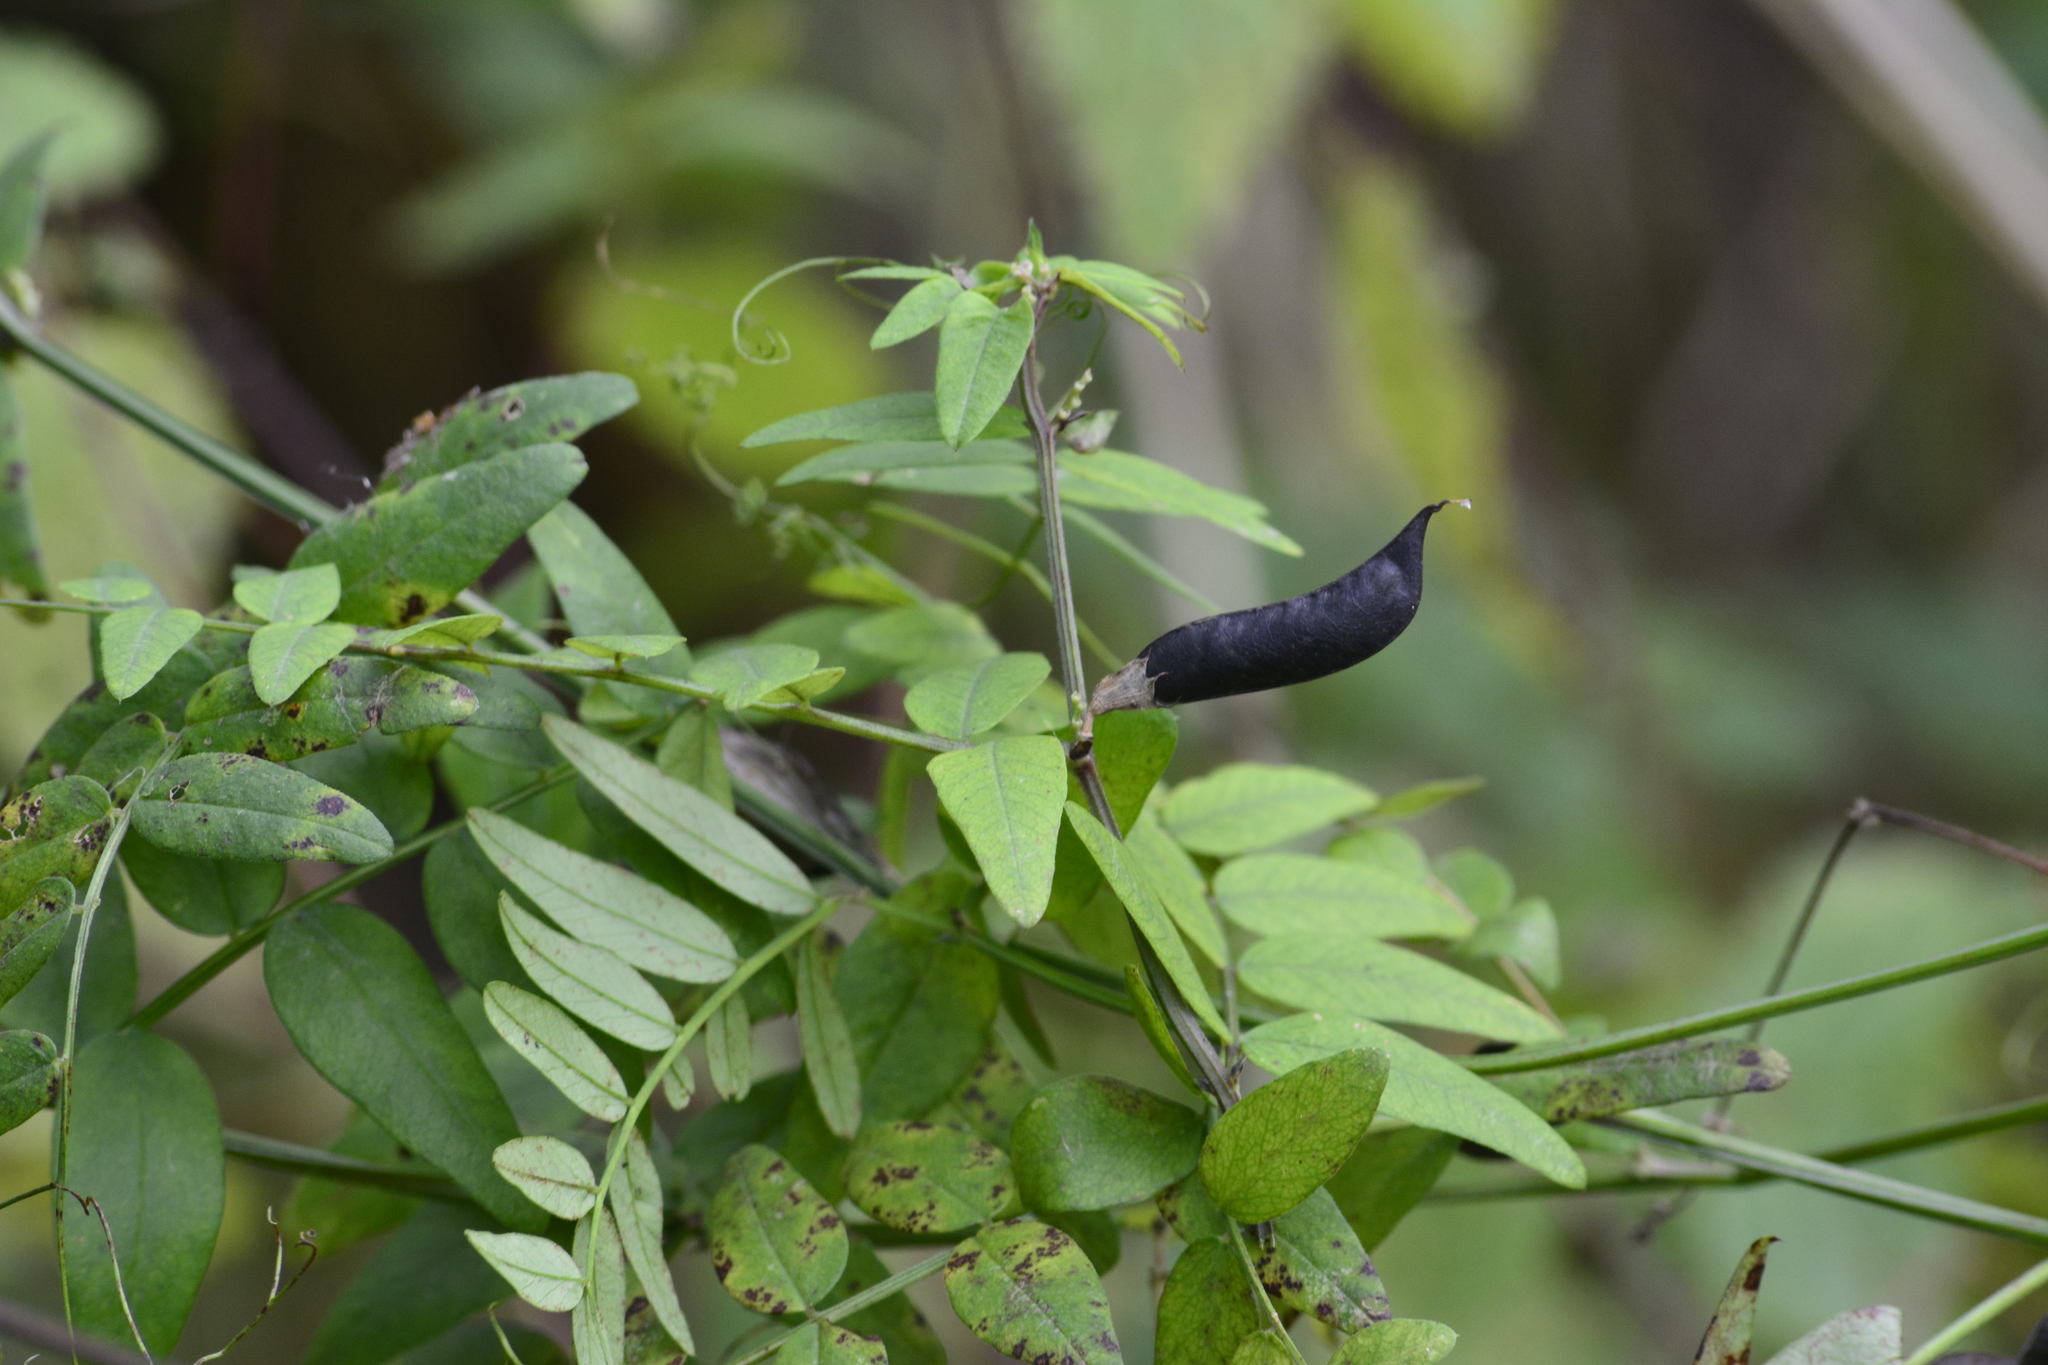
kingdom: Plantae
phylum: Tracheophyta
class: Magnoliopsida
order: Fabales
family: Fabaceae
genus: Vicia
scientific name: Vicia sepium
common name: Bush vetch
